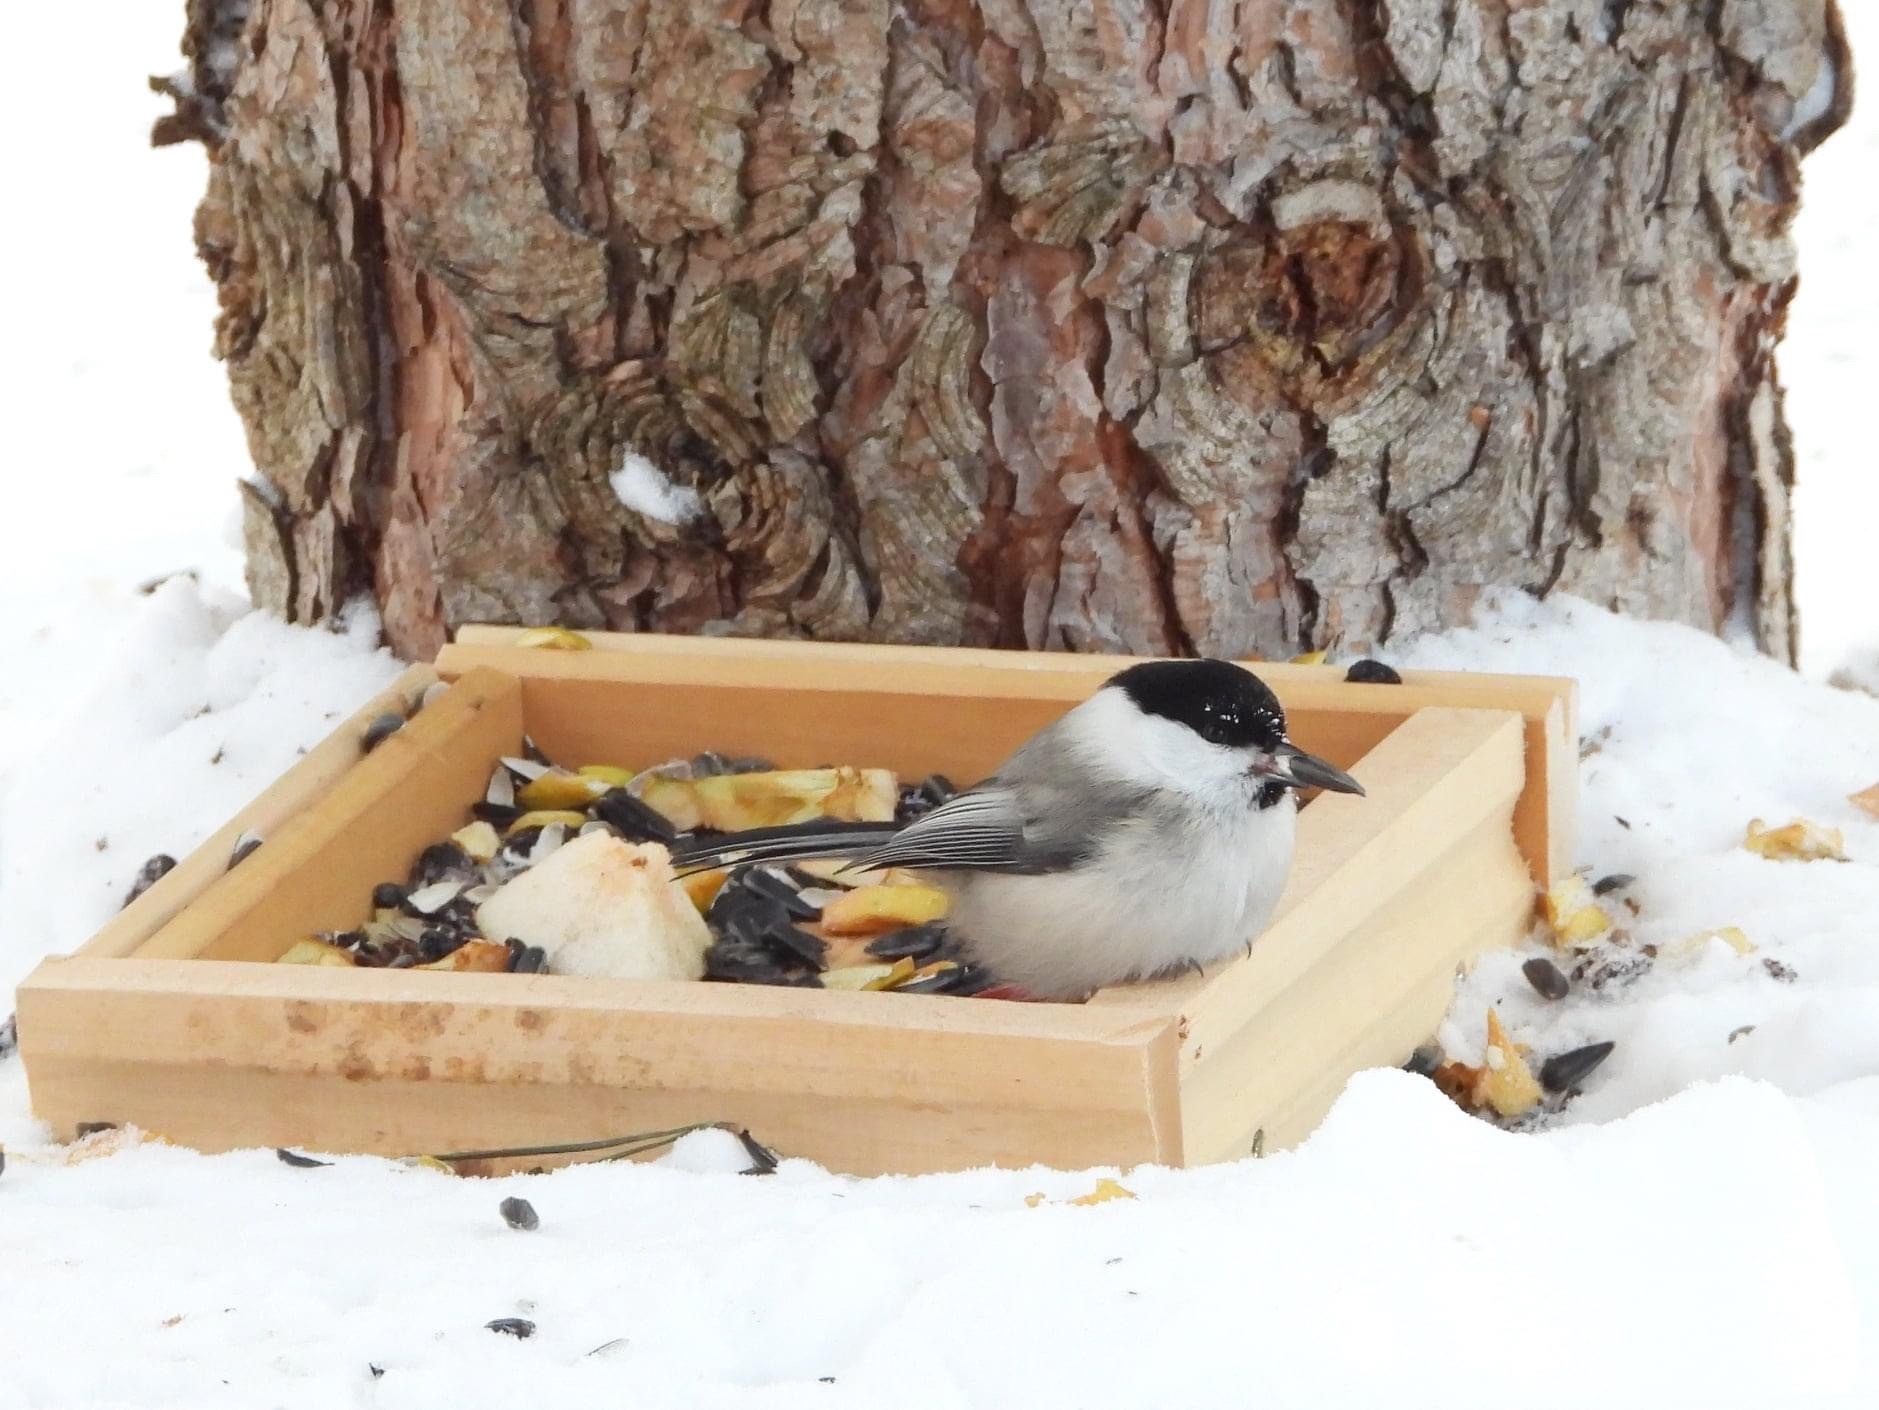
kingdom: Animalia
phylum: Chordata
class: Aves
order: Passeriformes
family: Paridae
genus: Poecile
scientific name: Poecile montanus
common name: Willow tit
